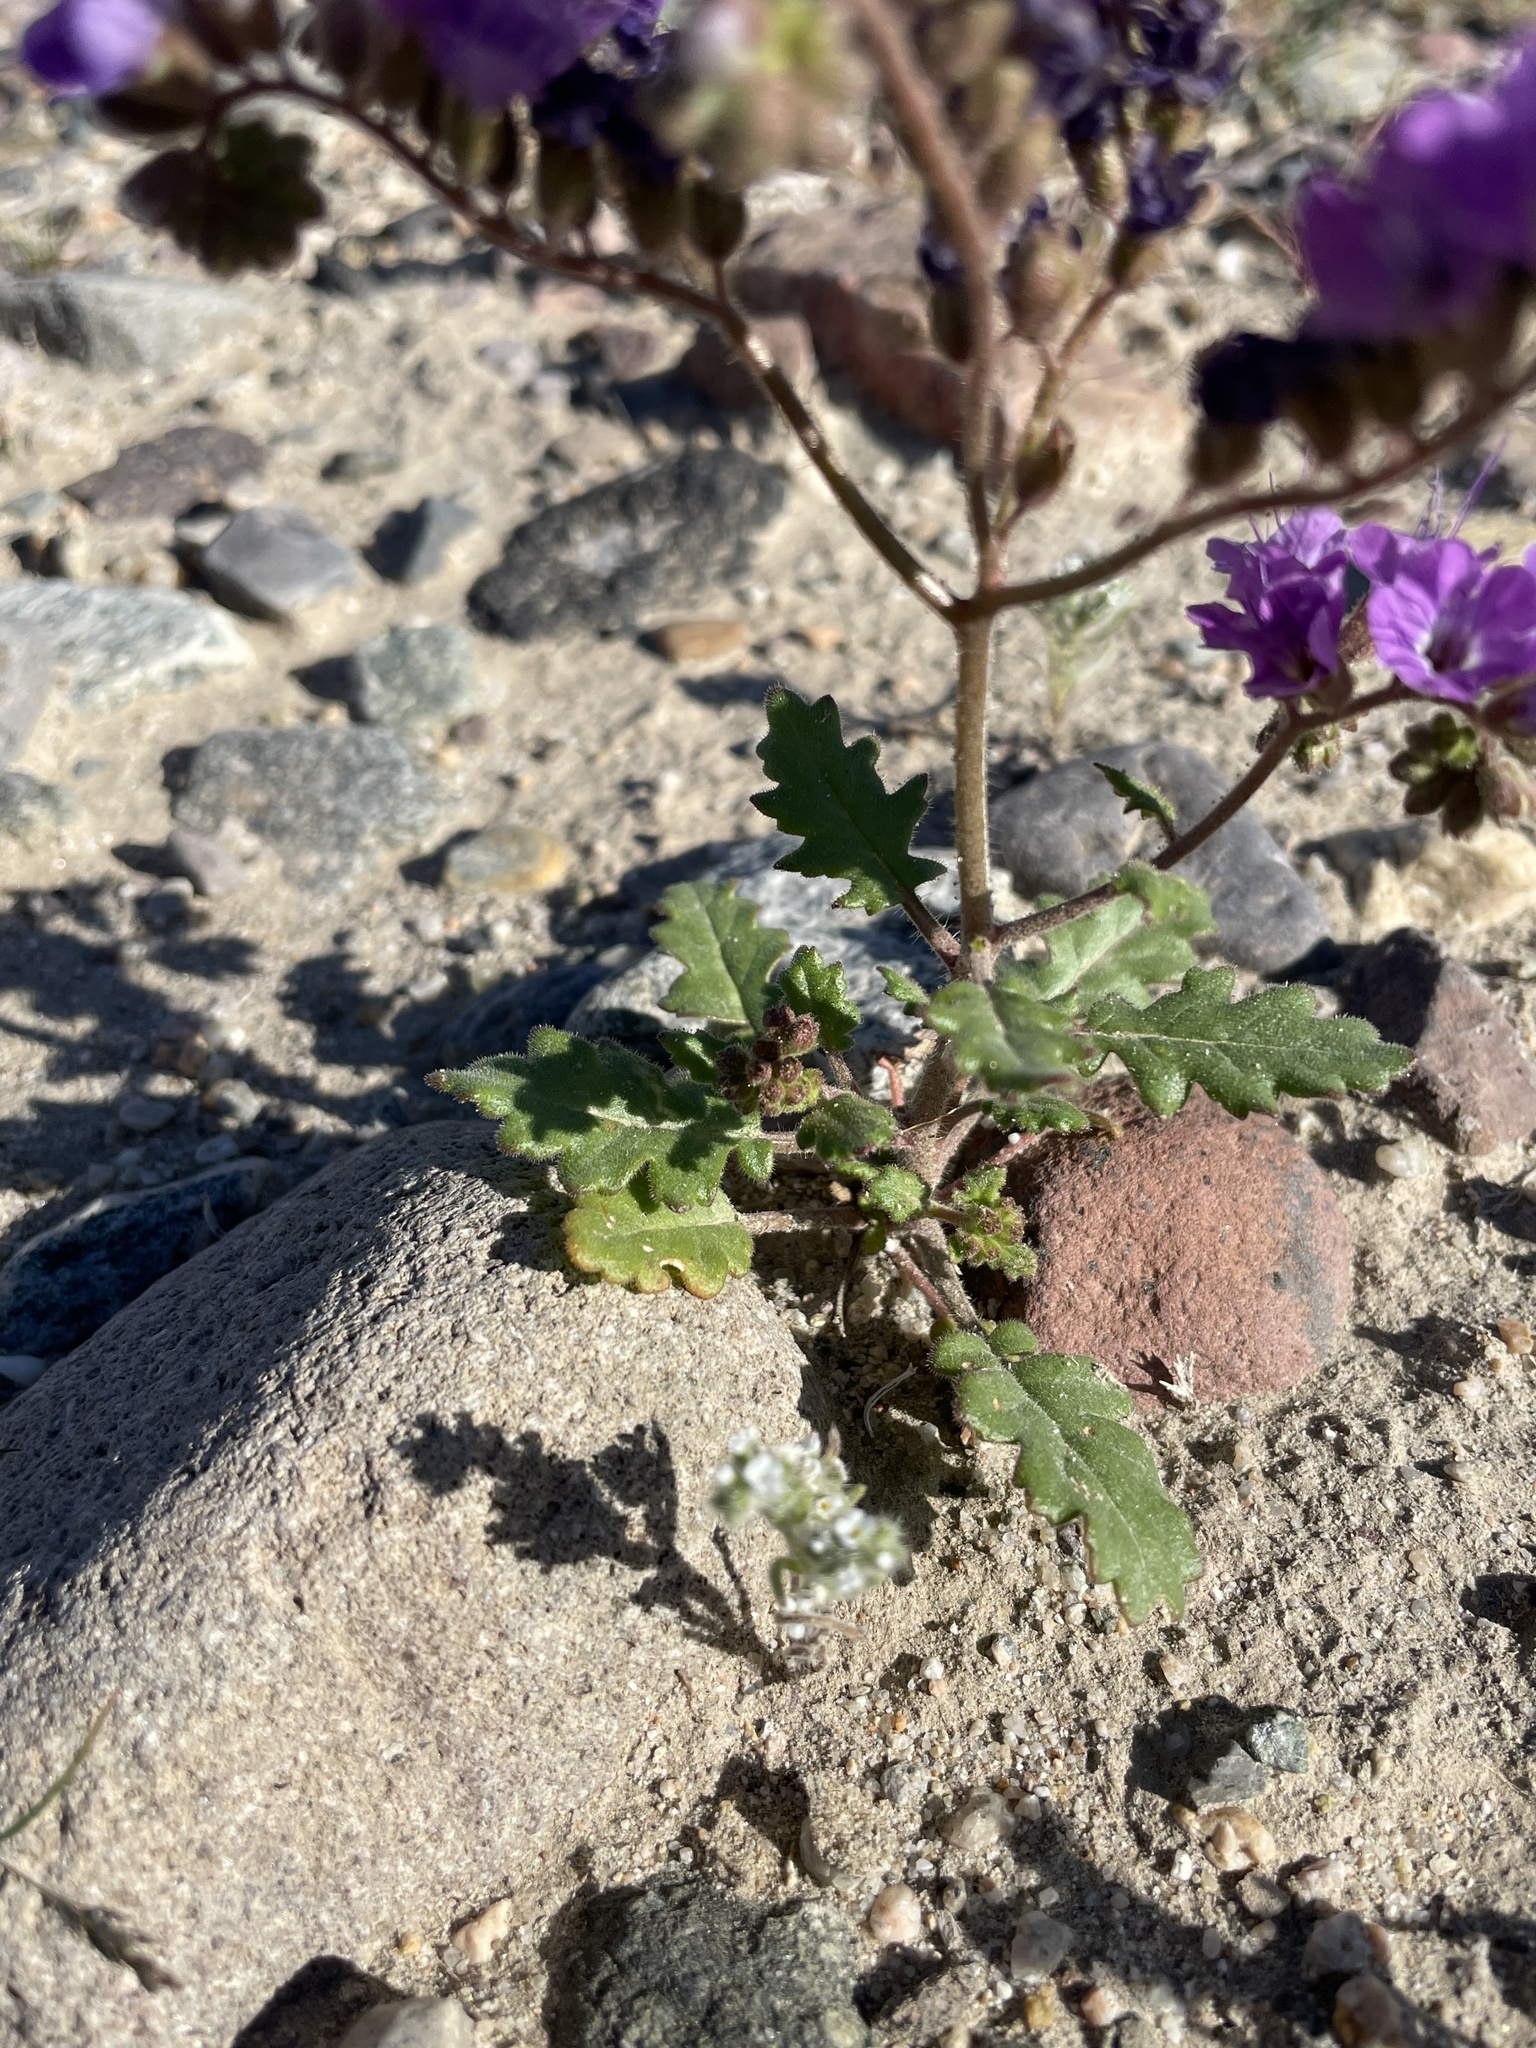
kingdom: Plantae
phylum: Tracheophyta
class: Magnoliopsida
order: Boraginales
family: Hydrophyllaceae
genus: Phacelia
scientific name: Phacelia crenulata
